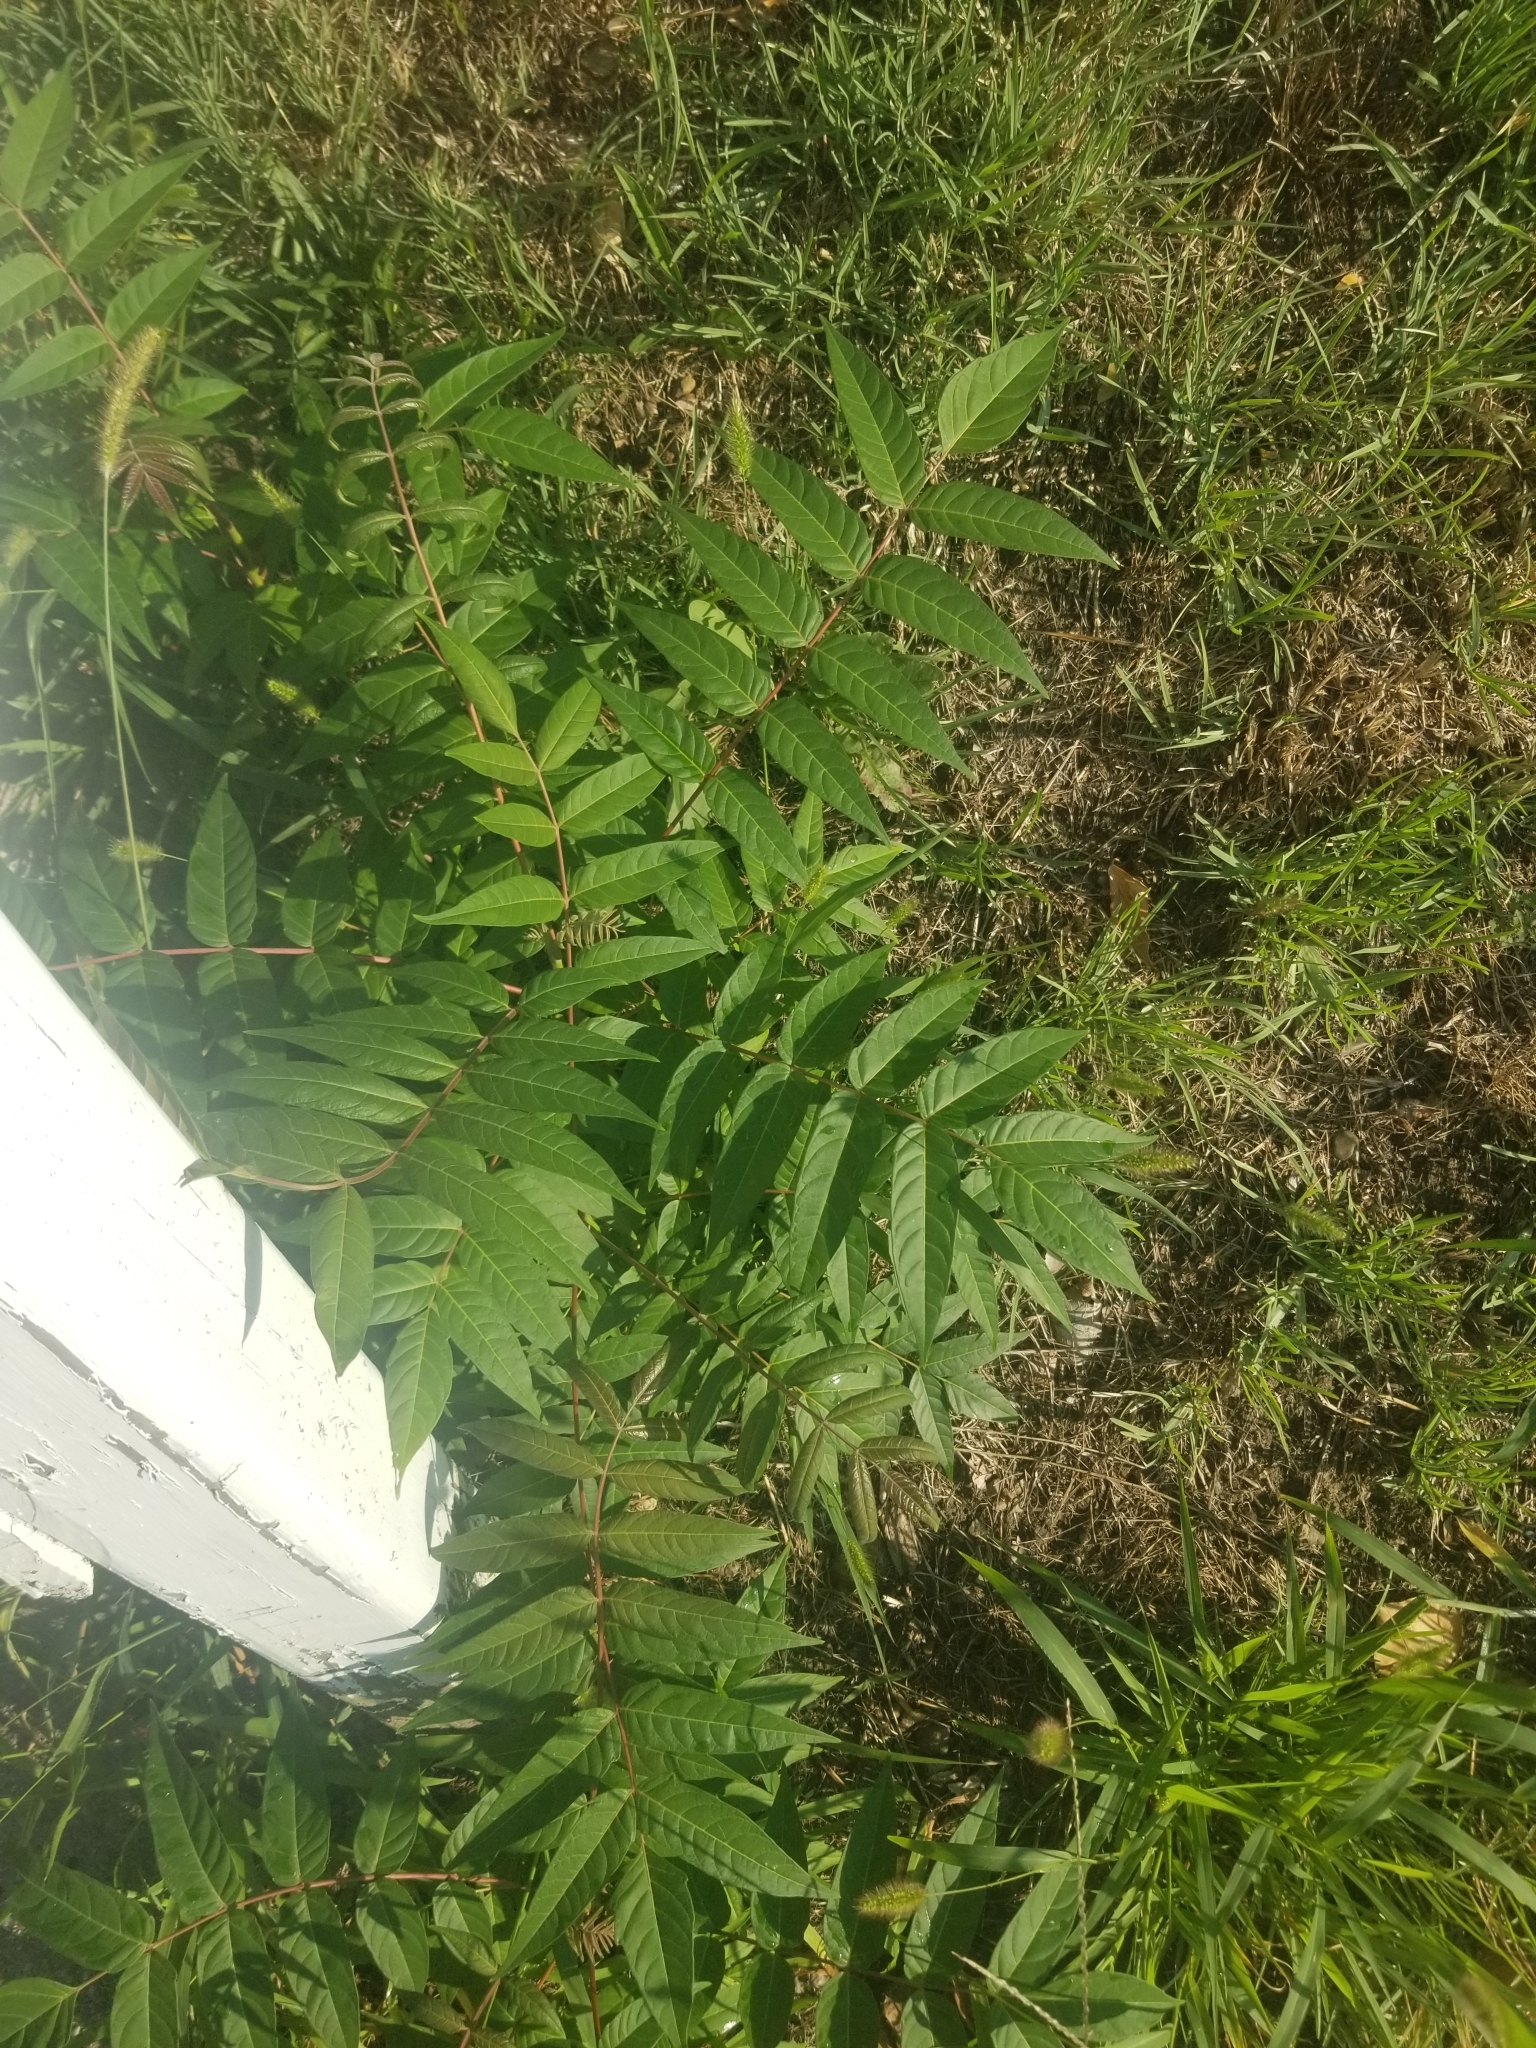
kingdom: Plantae
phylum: Tracheophyta
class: Magnoliopsida
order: Sapindales
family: Simaroubaceae
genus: Ailanthus
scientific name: Ailanthus altissima
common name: Tree-of-heaven
